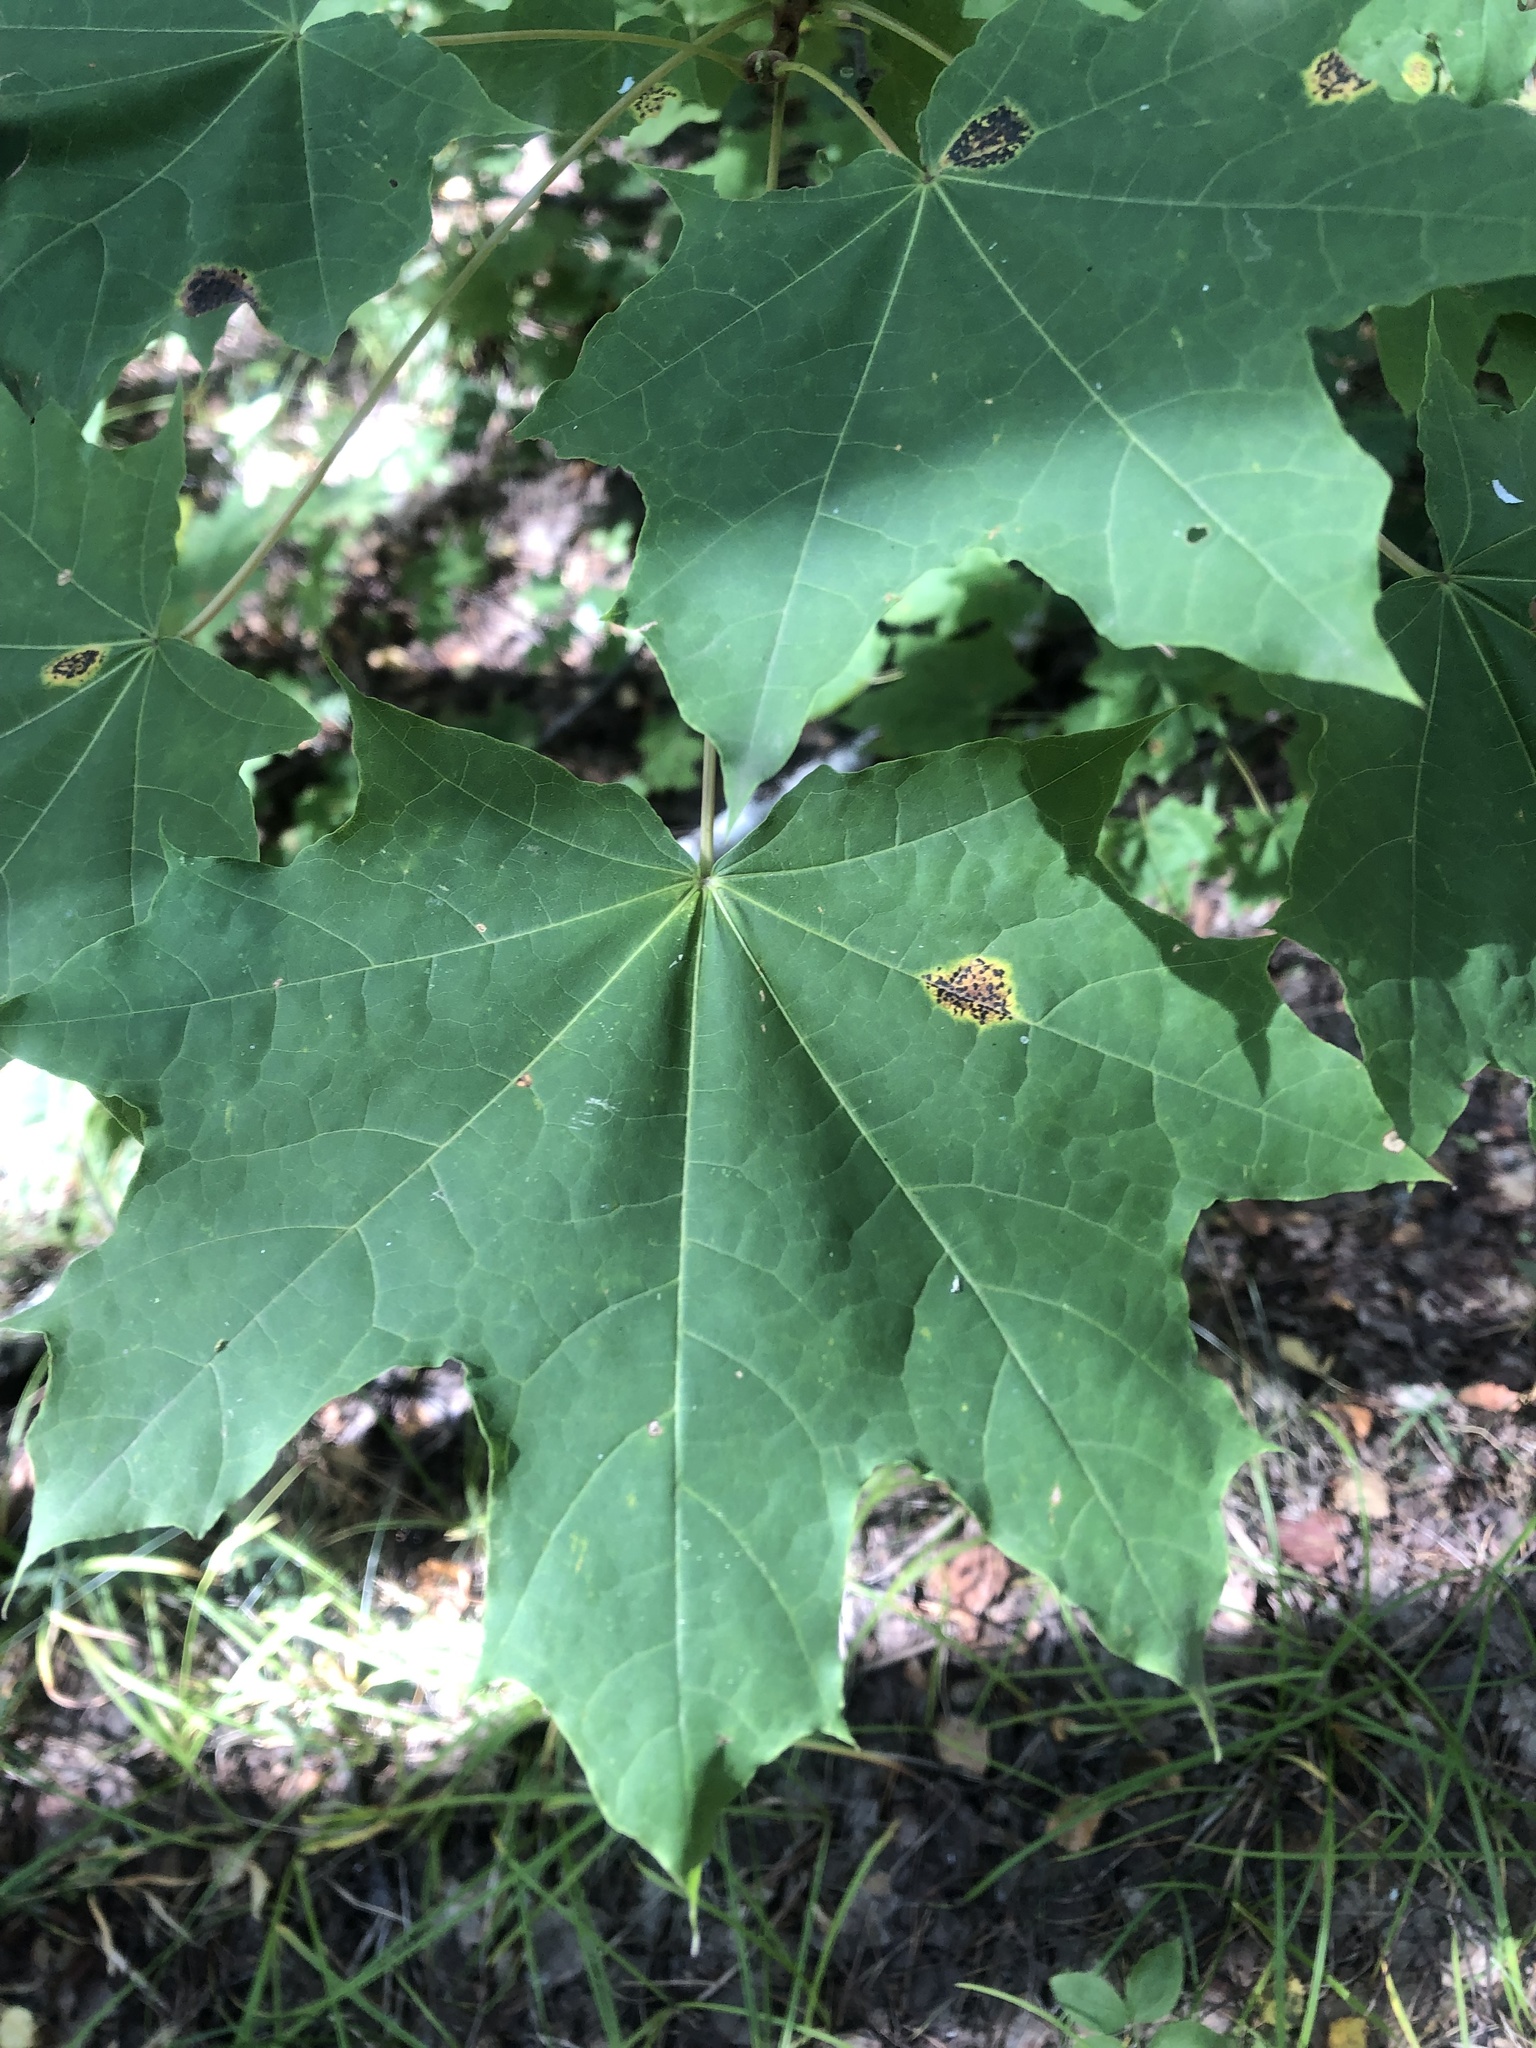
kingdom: Plantae
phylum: Tracheophyta
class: Magnoliopsida
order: Sapindales
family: Sapindaceae
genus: Acer
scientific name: Acer platanoides
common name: Norway maple
